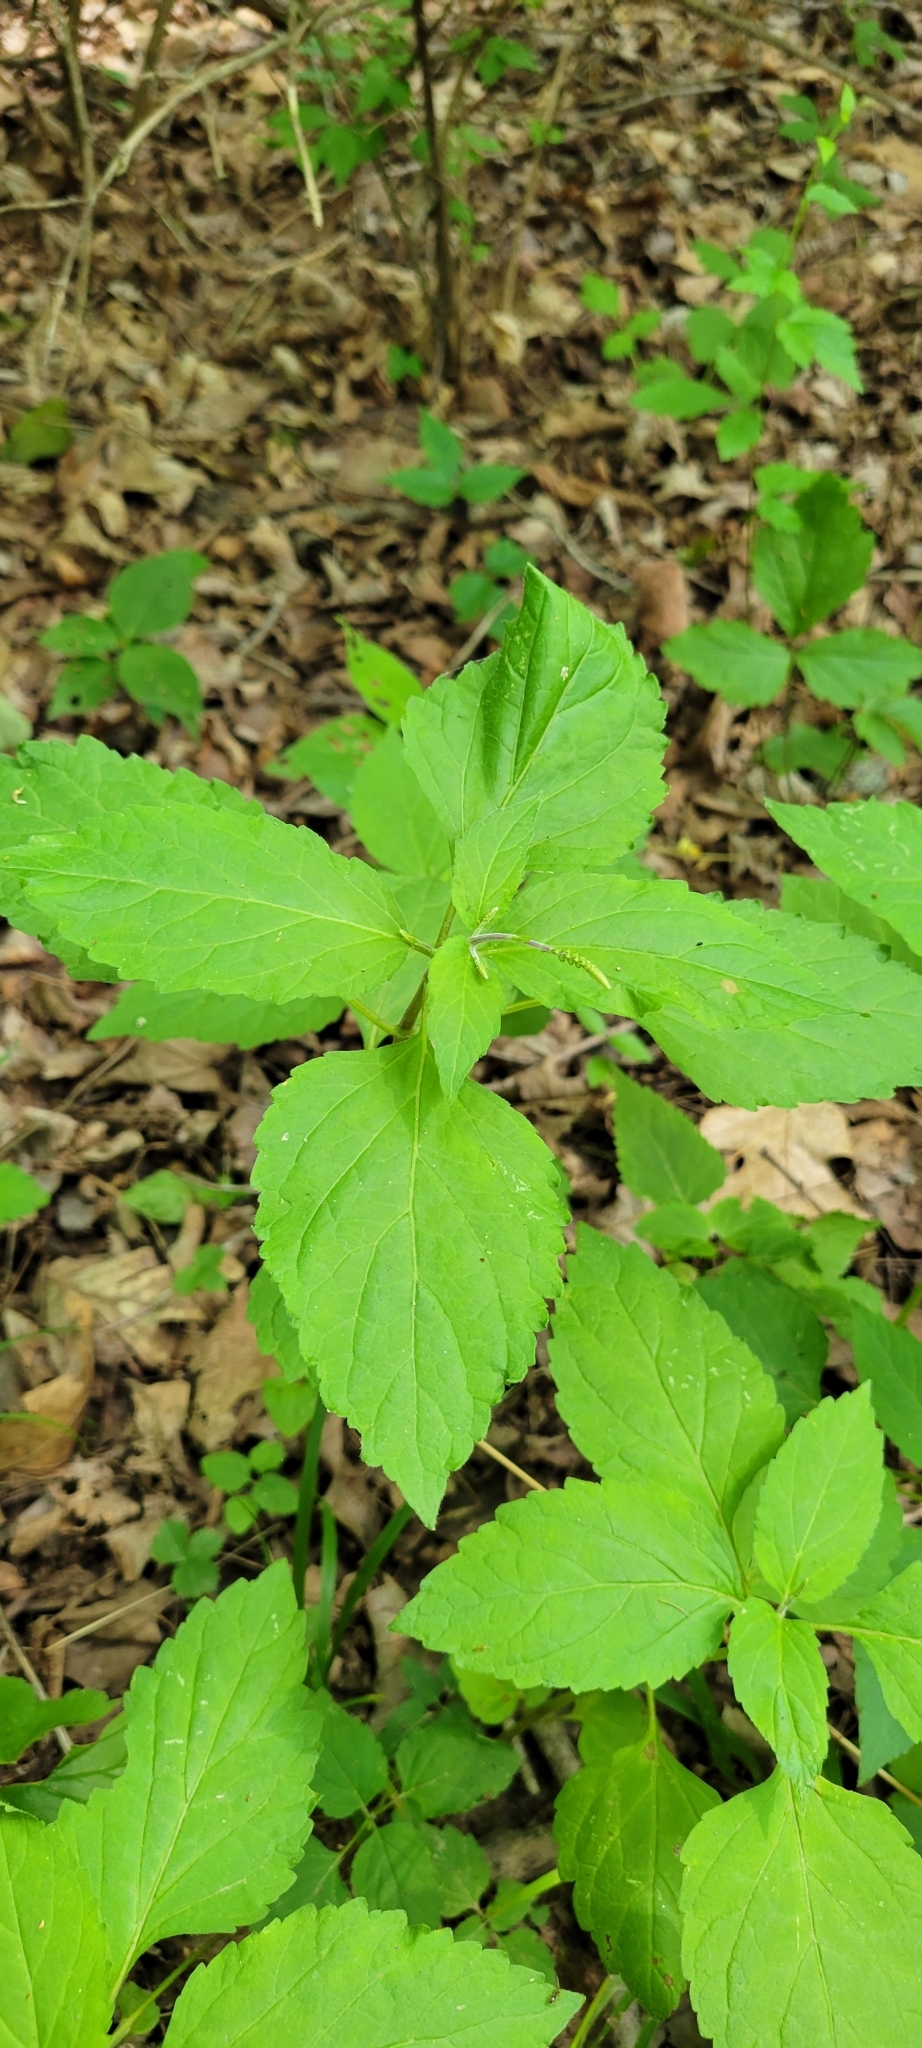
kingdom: Plantae
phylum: Tracheophyta
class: Magnoliopsida
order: Lamiales
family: Phrymaceae
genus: Phryma
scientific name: Phryma leptostachya
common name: American lopseed
